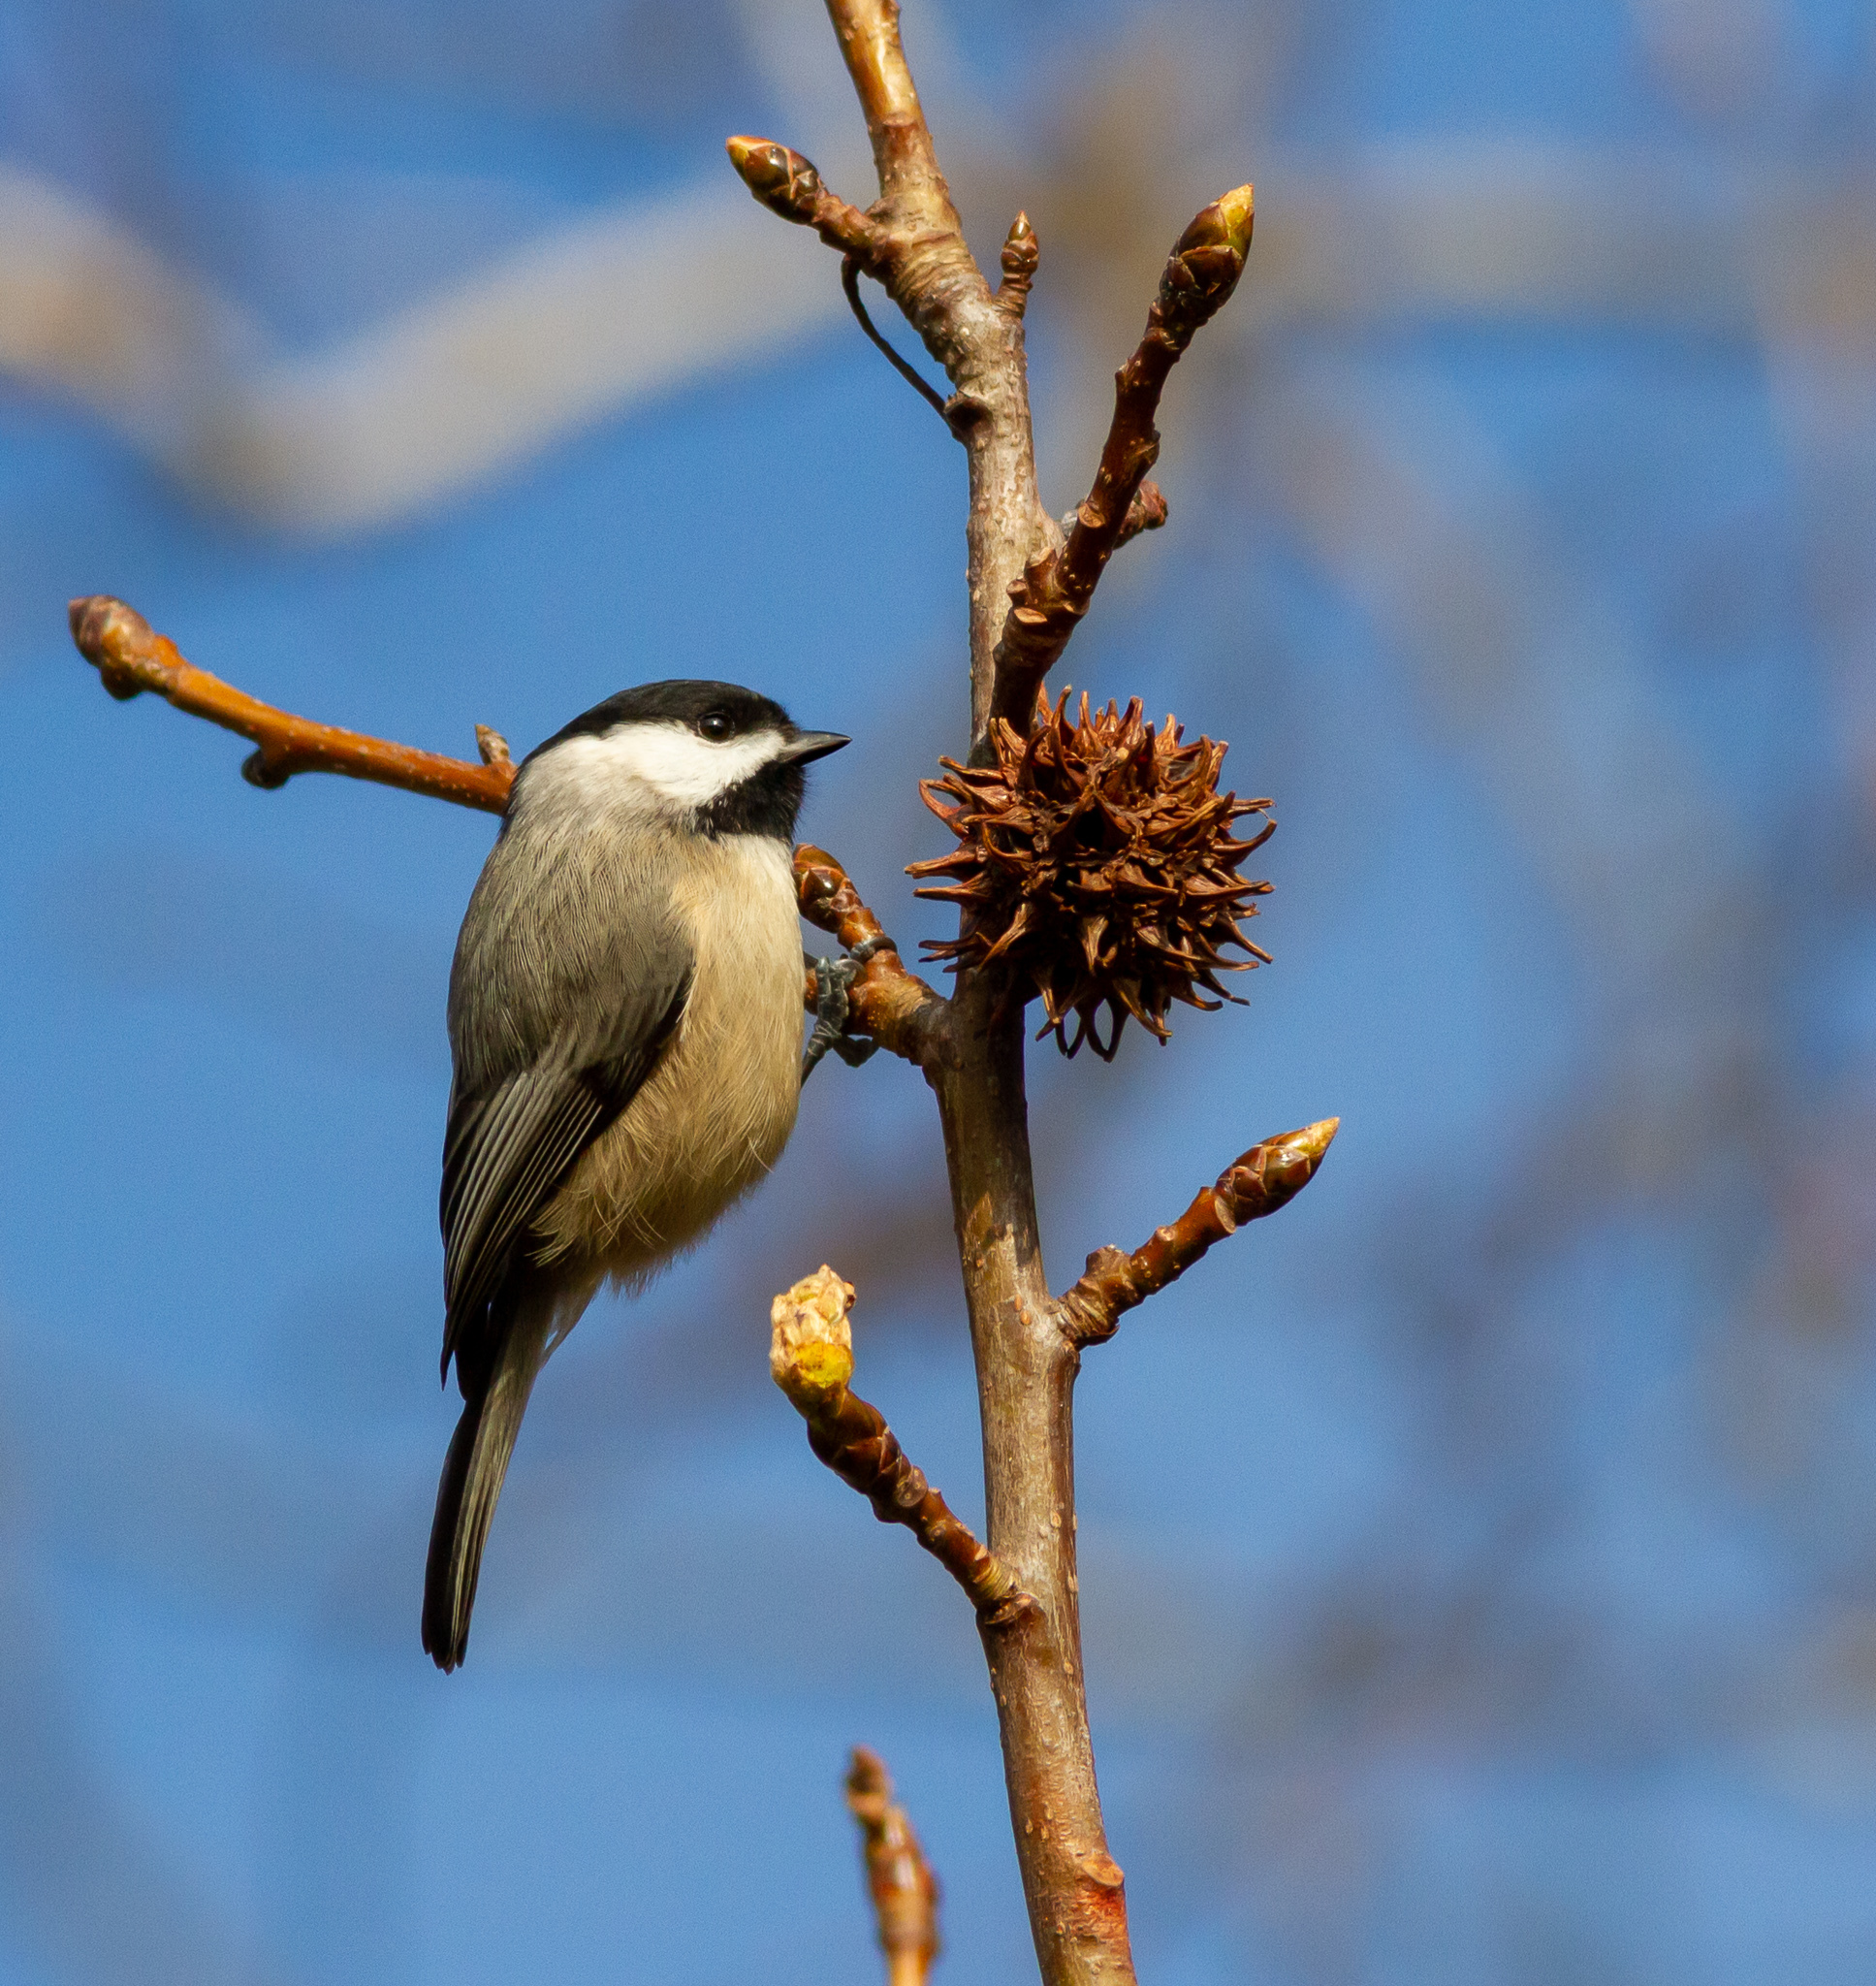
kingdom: Animalia
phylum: Chordata
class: Aves
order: Passeriformes
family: Paridae
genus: Poecile
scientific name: Poecile carolinensis
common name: Carolina chickadee
